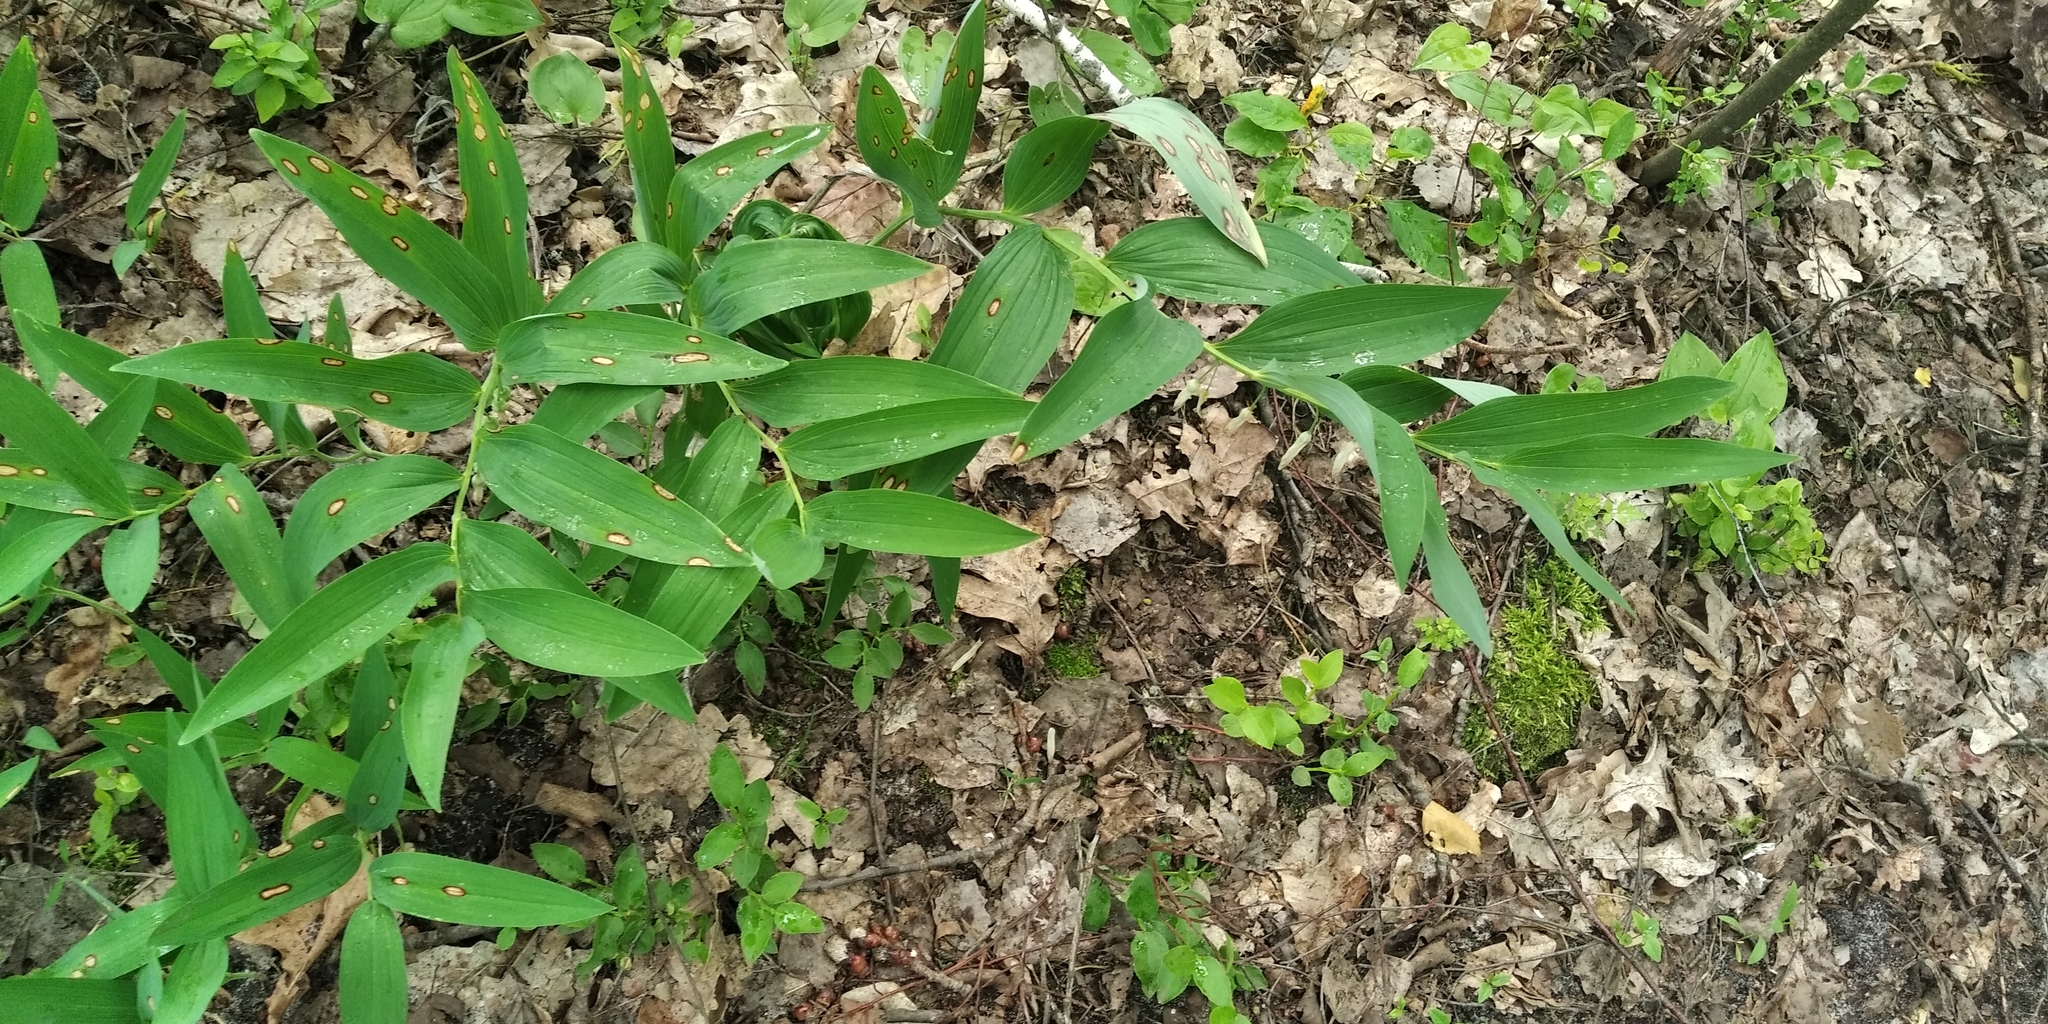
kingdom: Plantae
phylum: Tracheophyta
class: Liliopsida
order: Asparagales
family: Asparagaceae
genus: Polygonatum
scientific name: Polygonatum odoratum
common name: Angular solomon's-seal
